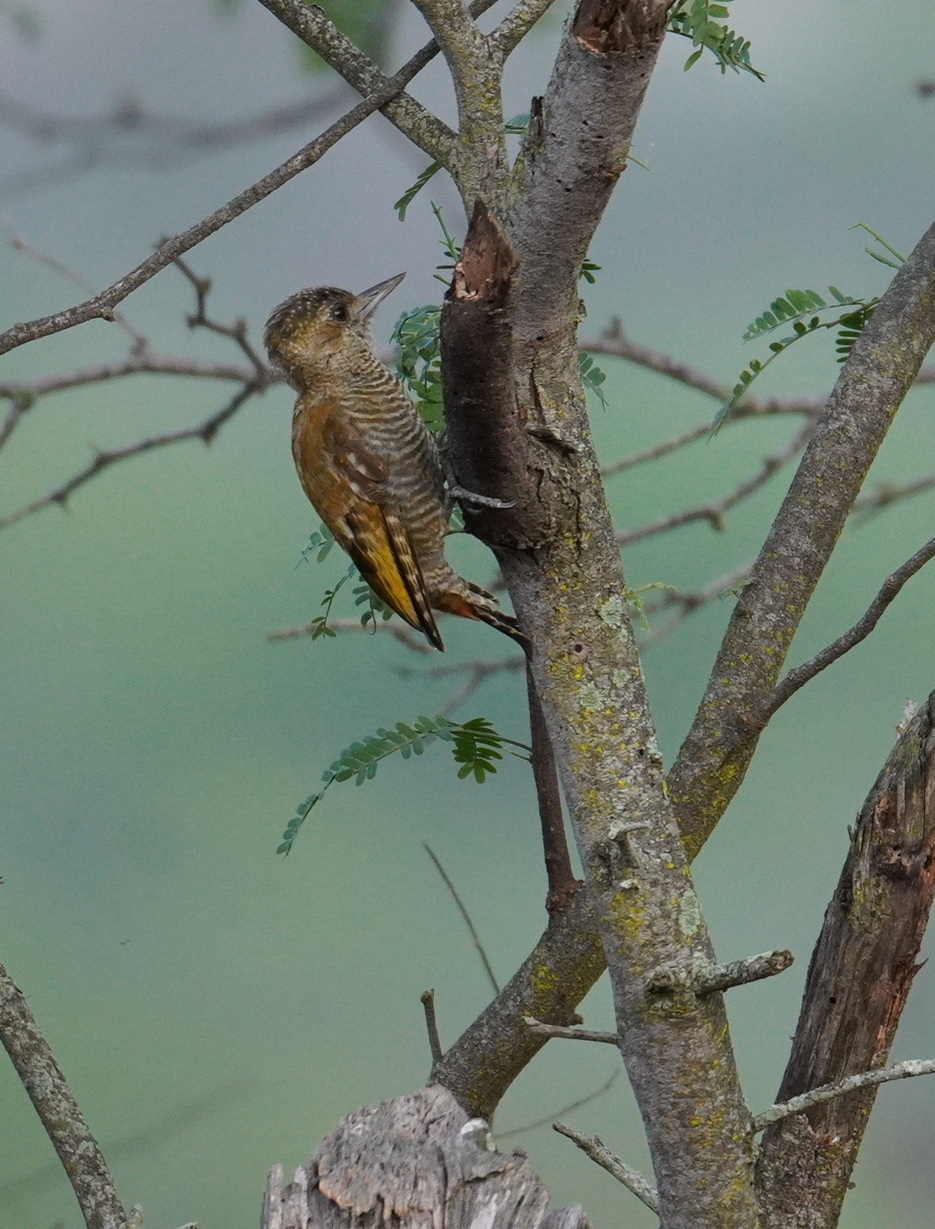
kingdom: Animalia
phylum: Chordata
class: Aves
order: Piciformes
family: Picidae
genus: Veniliornis
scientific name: Veniliornis passerinus
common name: Little woodpecker
